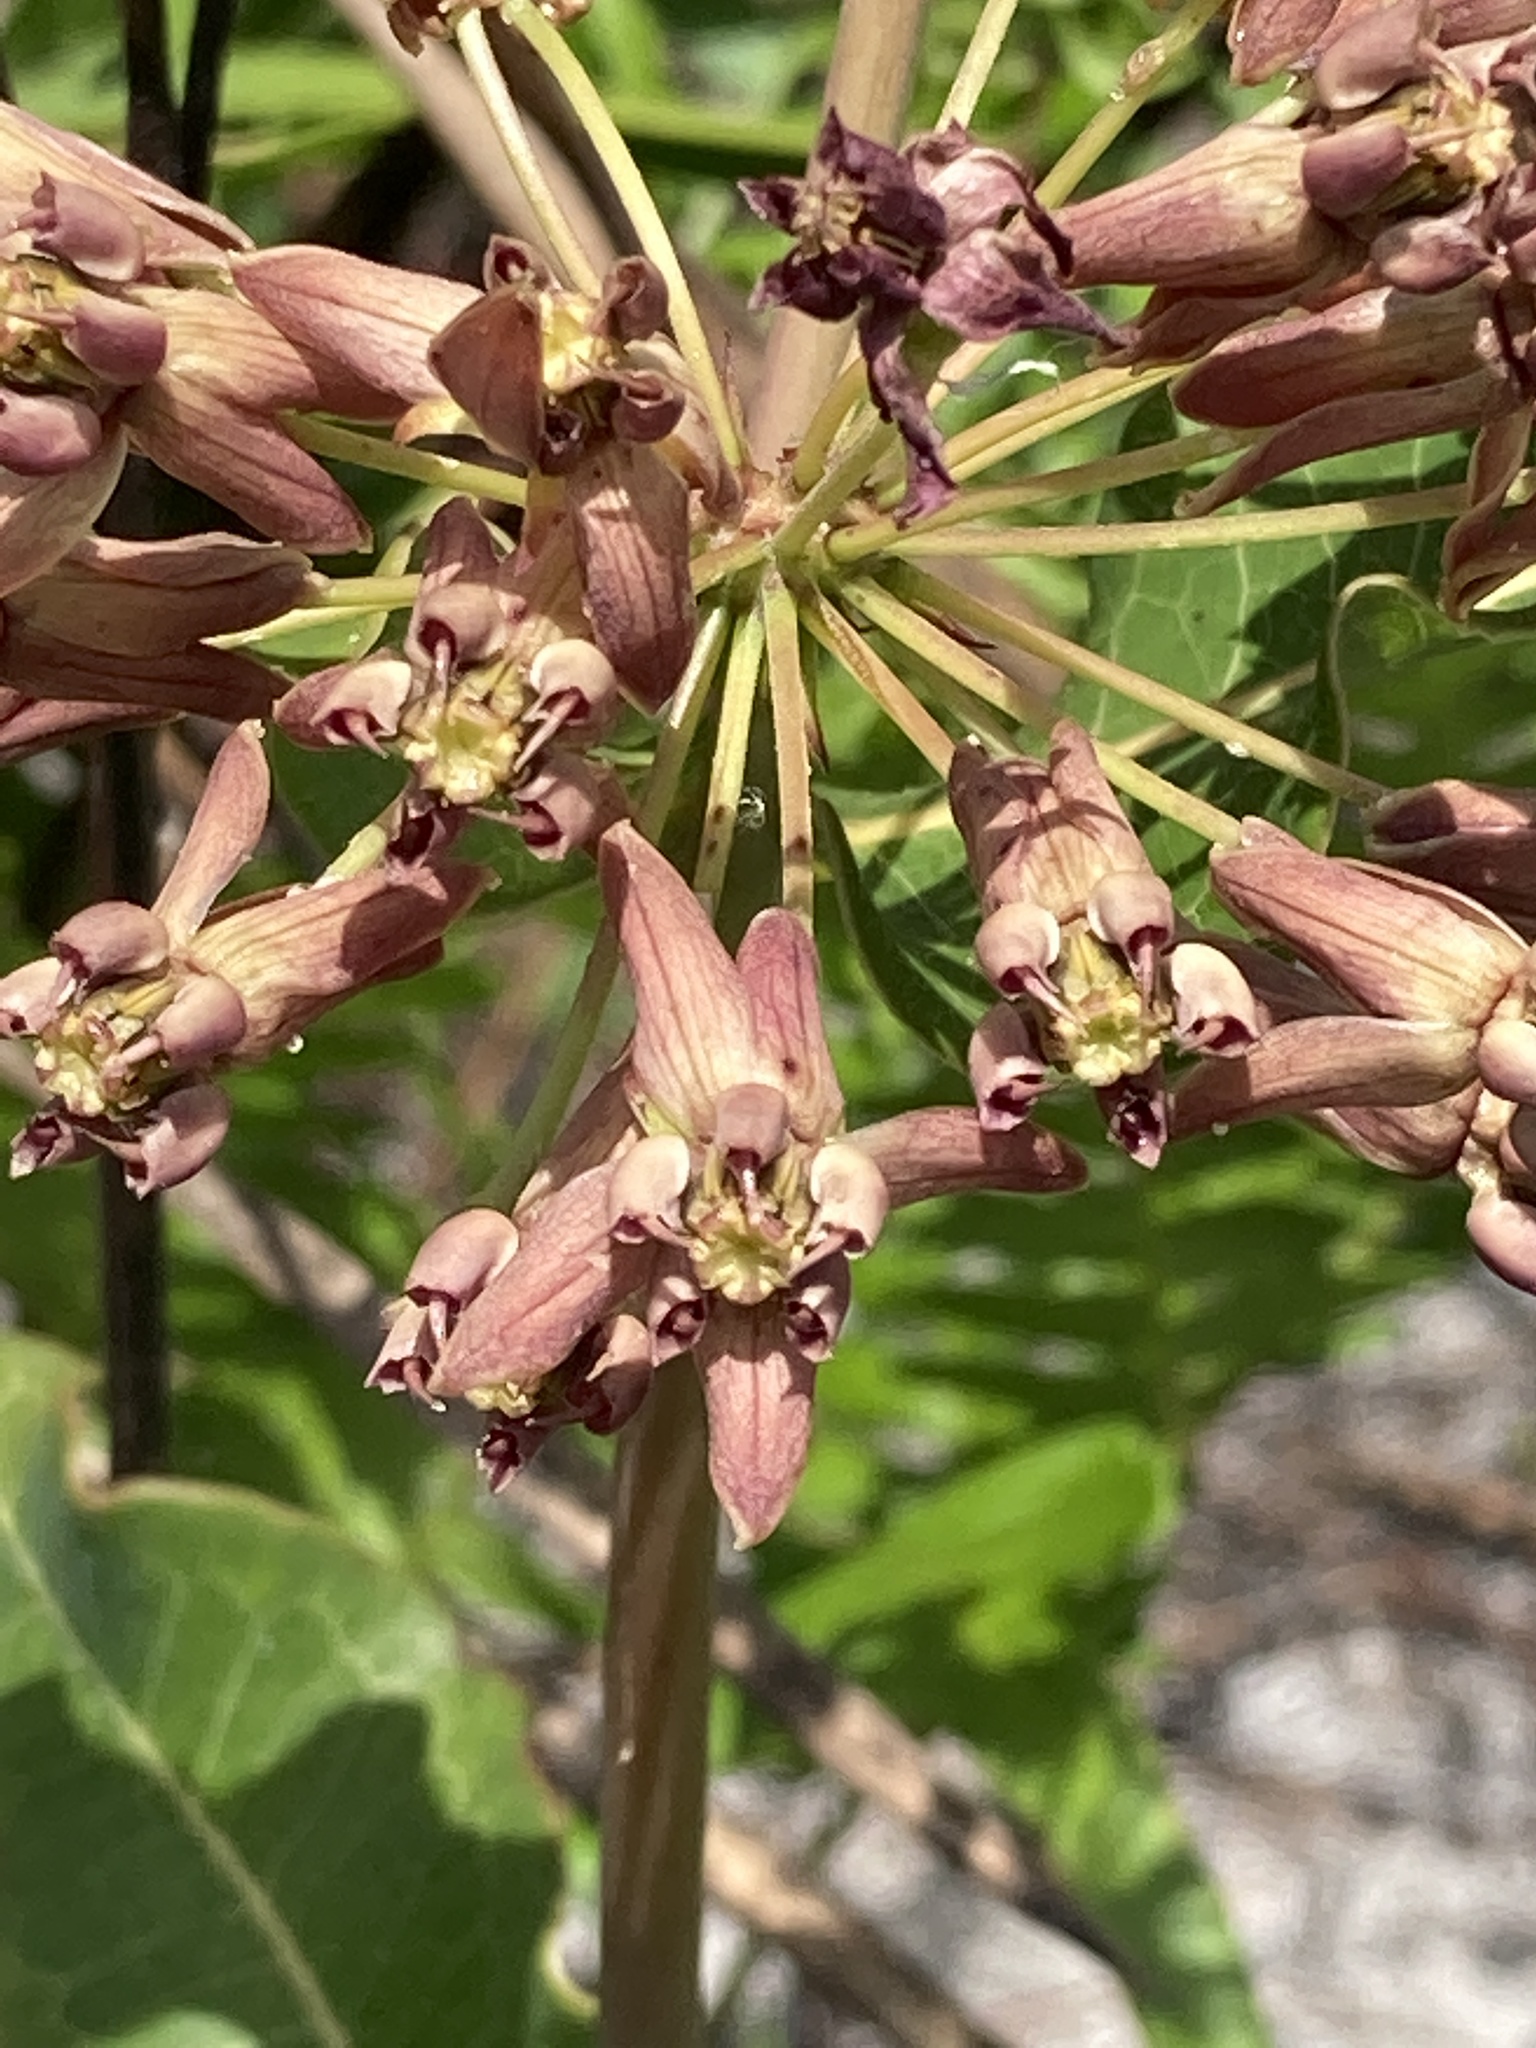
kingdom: Plantae
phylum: Tracheophyta
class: Magnoliopsida
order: Gentianales
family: Apocynaceae
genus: Asclepias
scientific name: Asclepias amplexicaulis
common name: Blunt-leaf milkweed
